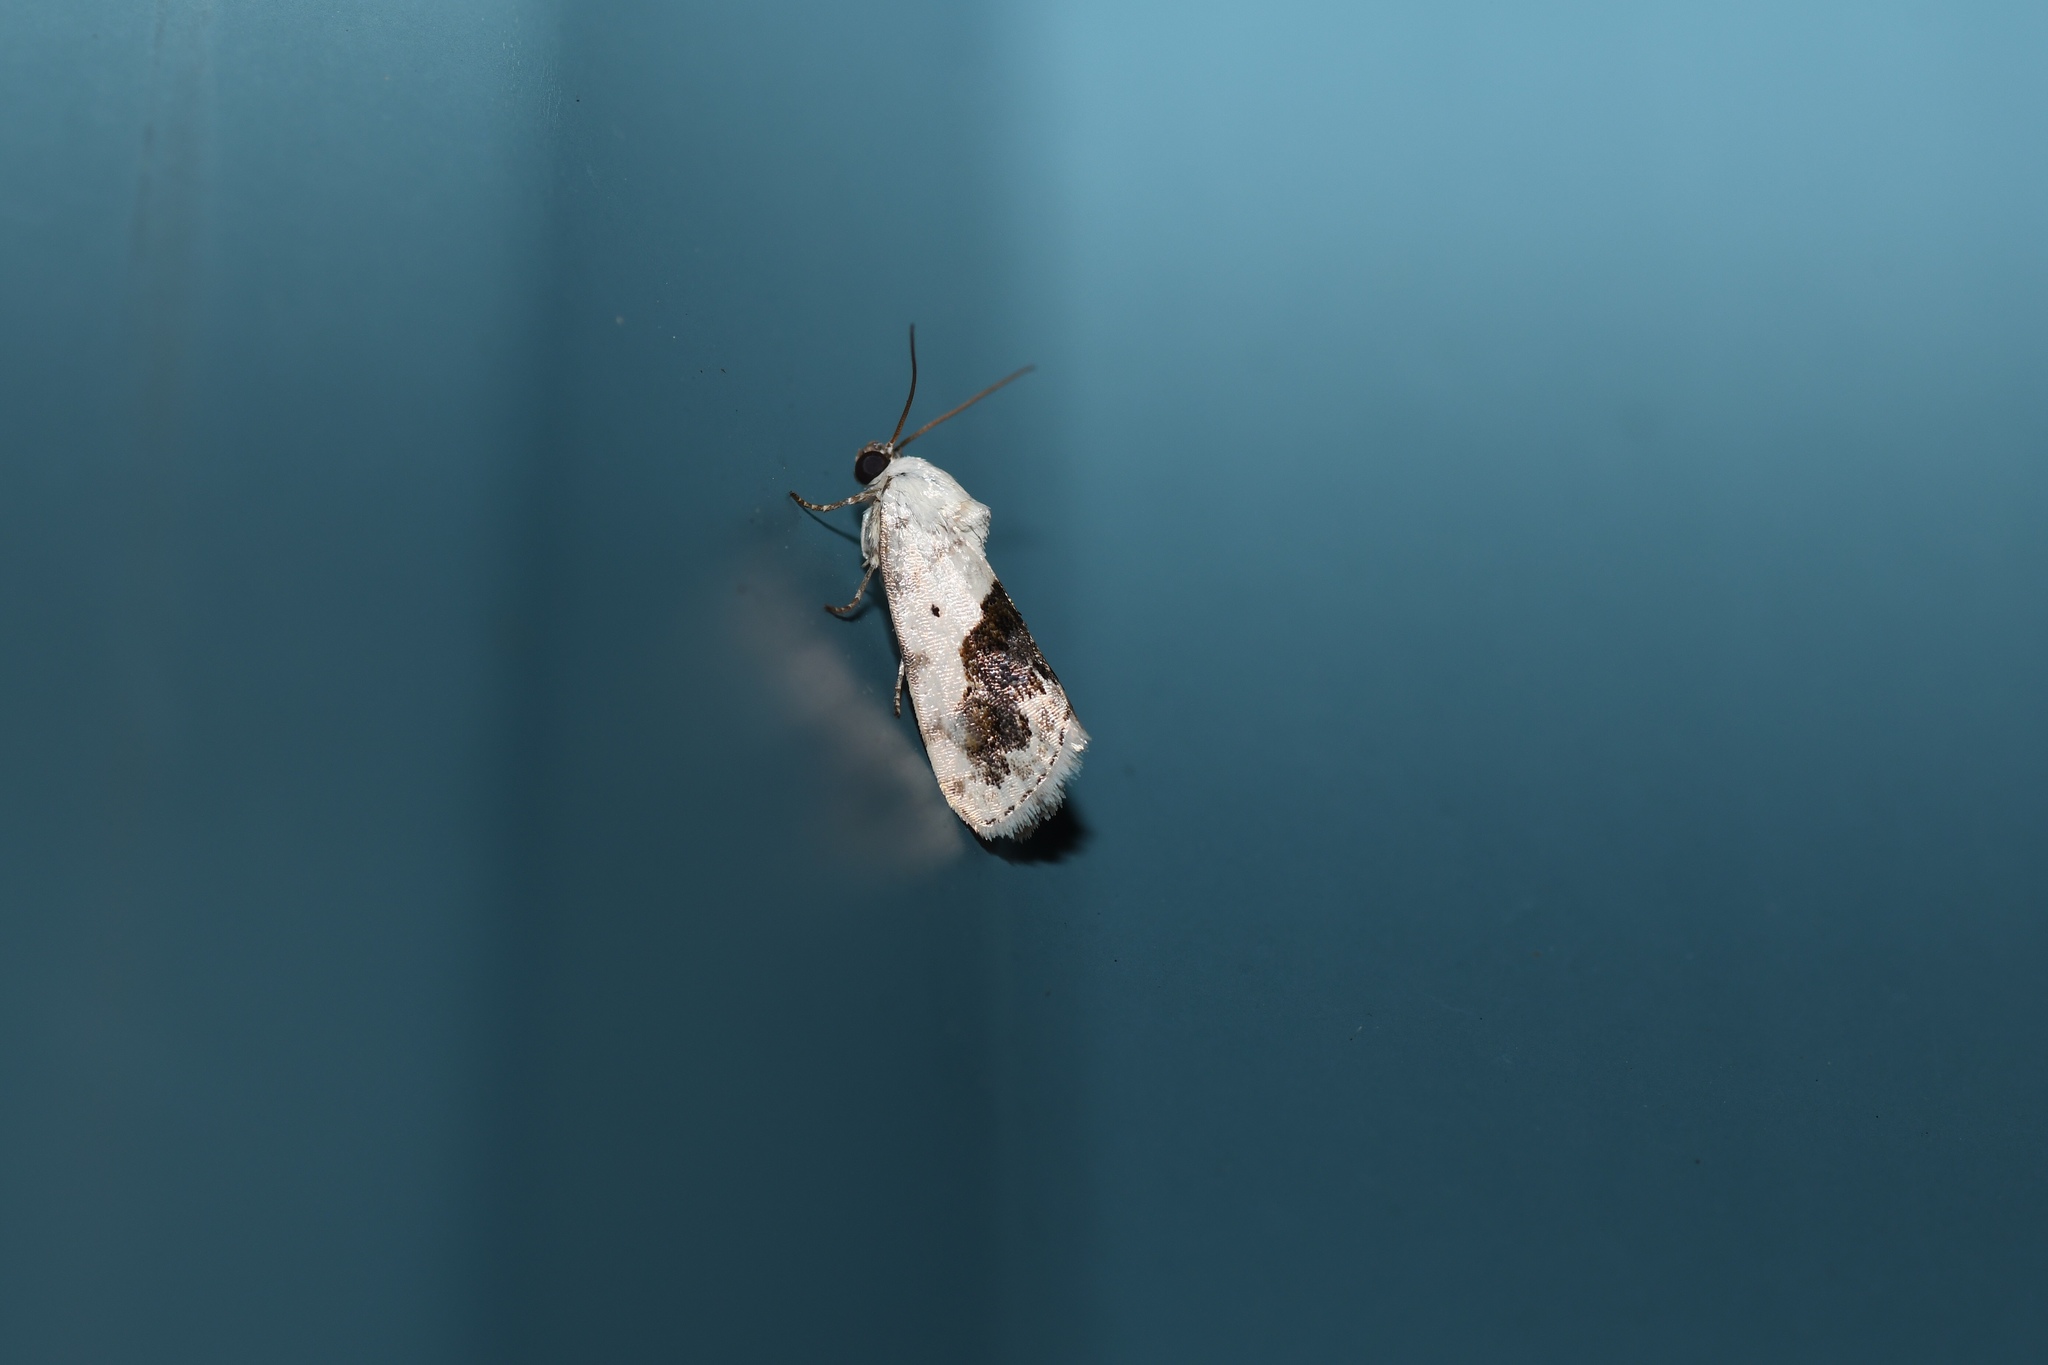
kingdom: Animalia
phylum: Arthropoda
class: Insecta
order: Lepidoptera
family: Noctuidae
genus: Acontia
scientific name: Acontia erastrioides
